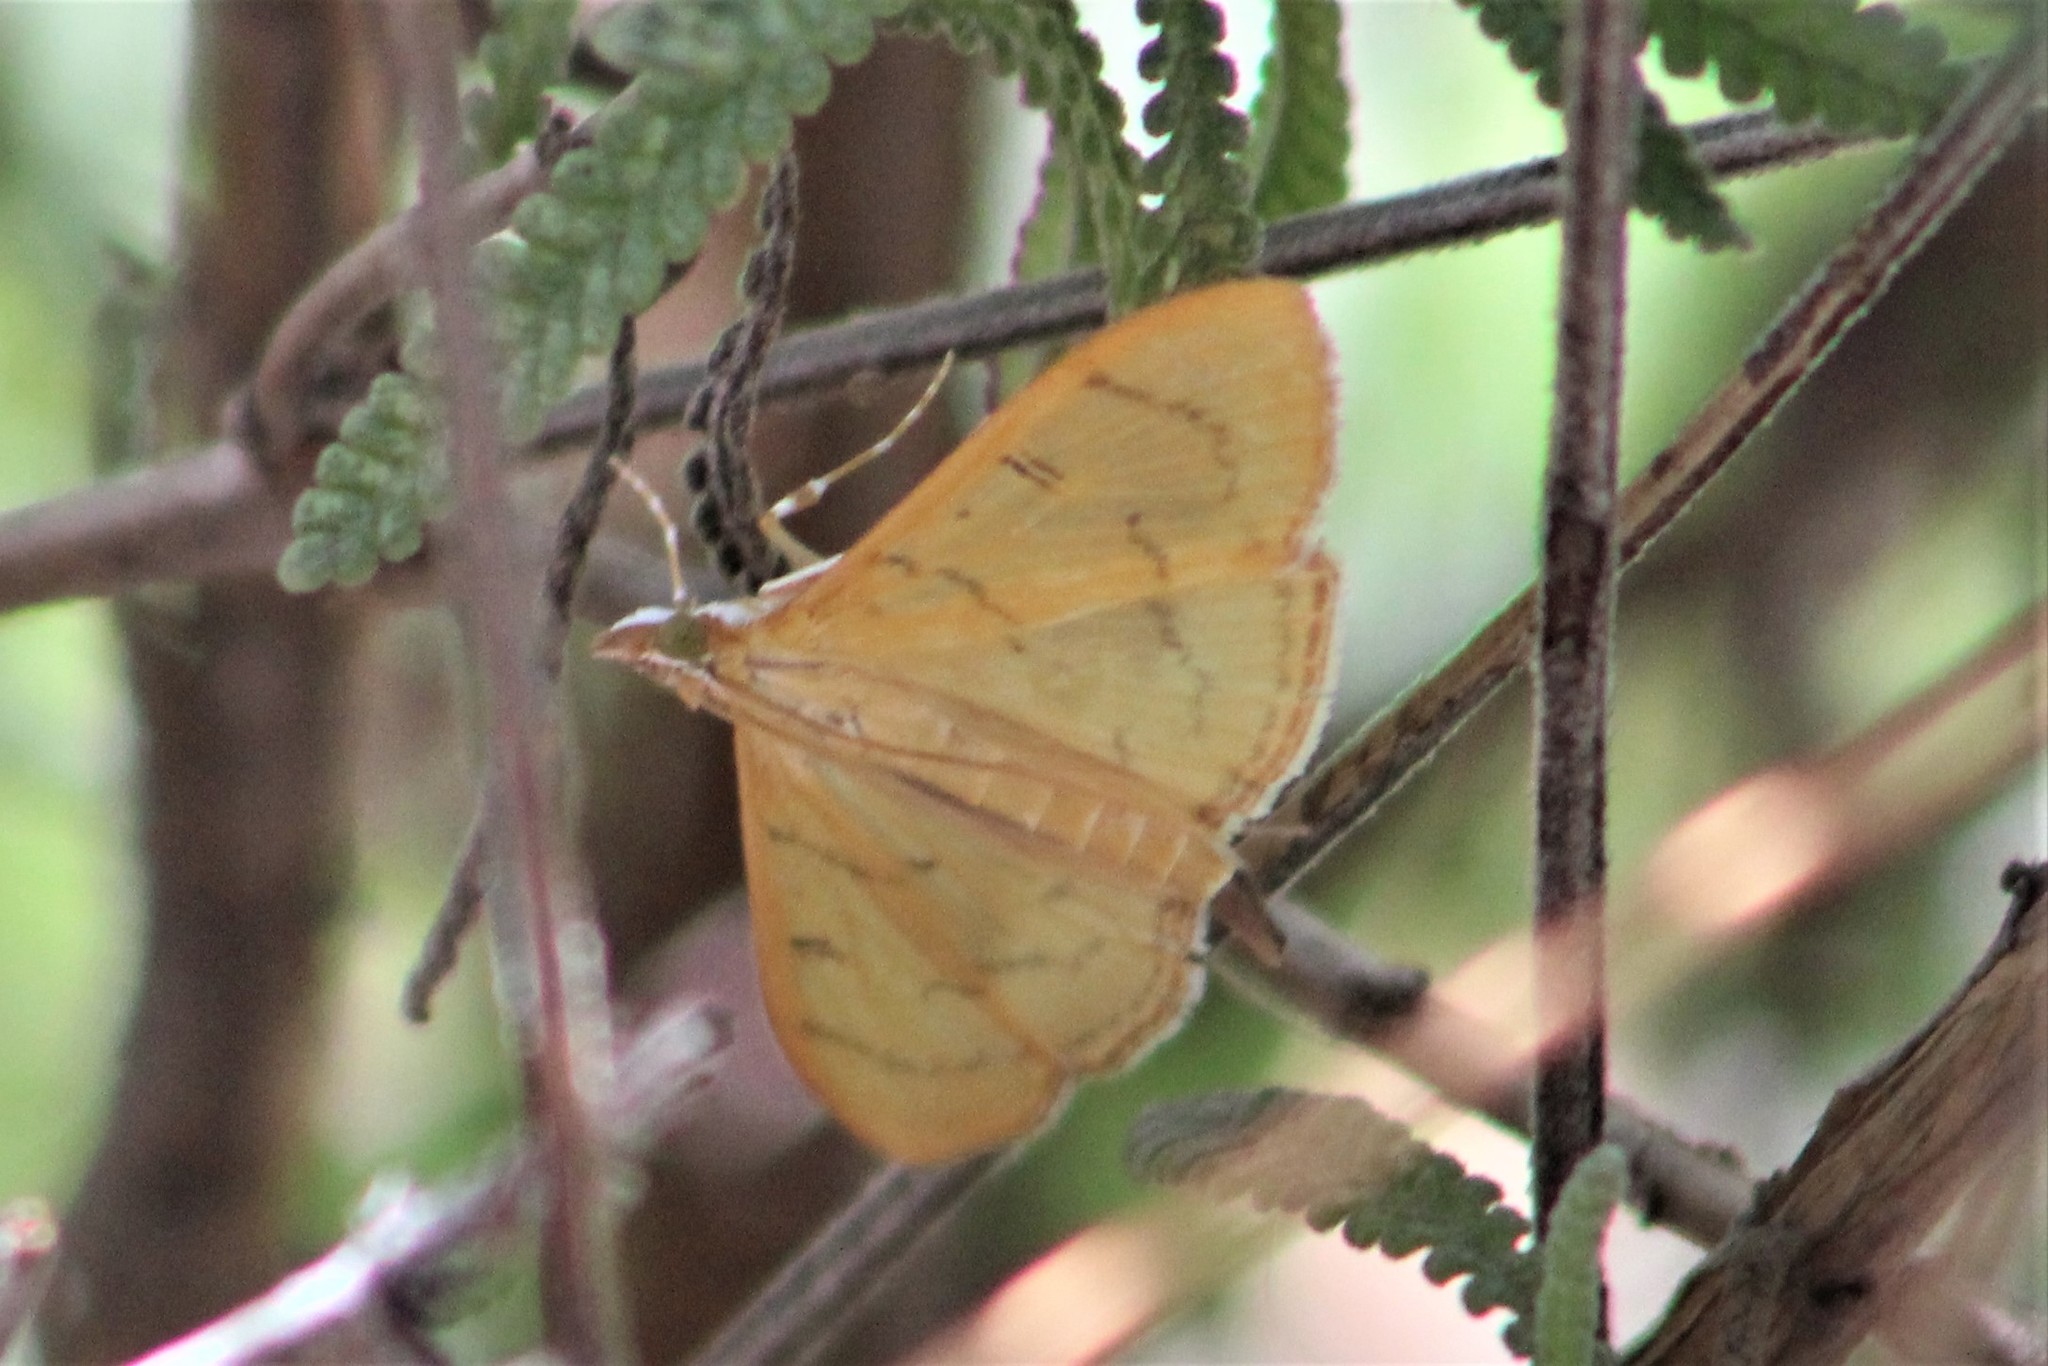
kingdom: Animalia
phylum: Arthropoda
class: Insecta
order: Lepidoptera
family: Crambidae
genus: Condylorrhiza
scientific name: Condylorrhiza vestigialis
